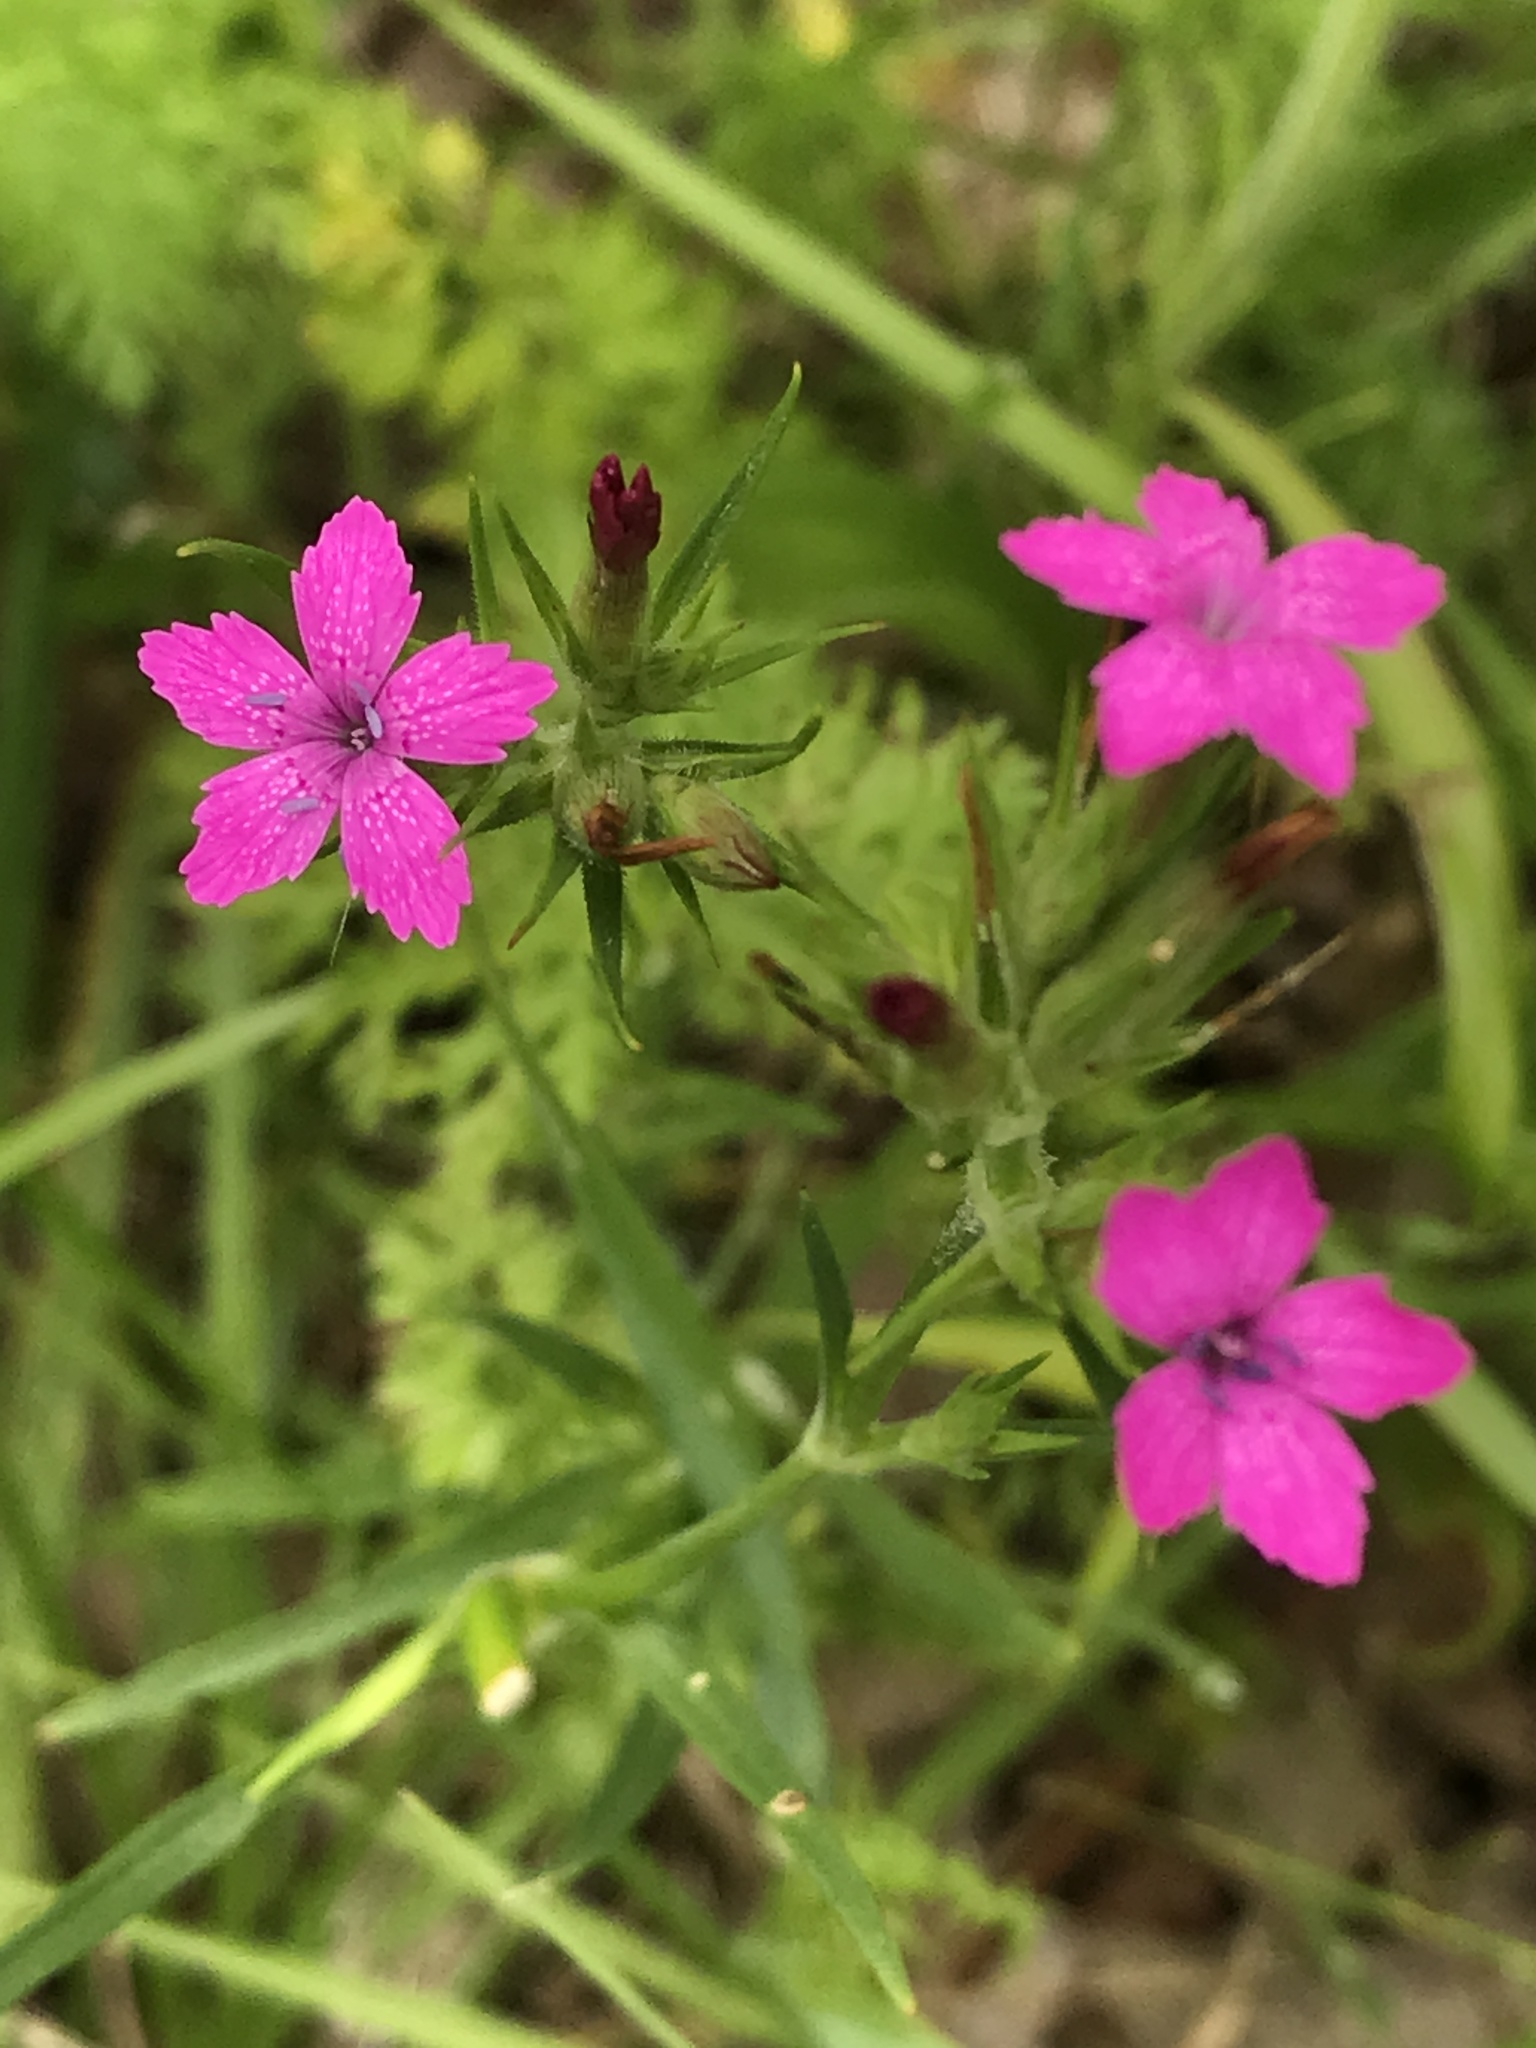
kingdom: Plantae
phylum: Tracheophyta
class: Magnoliopsida
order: Caryophyllales
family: Caryophyllaceae
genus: Dianthus
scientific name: Dianthus armeria
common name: Deptford pink
